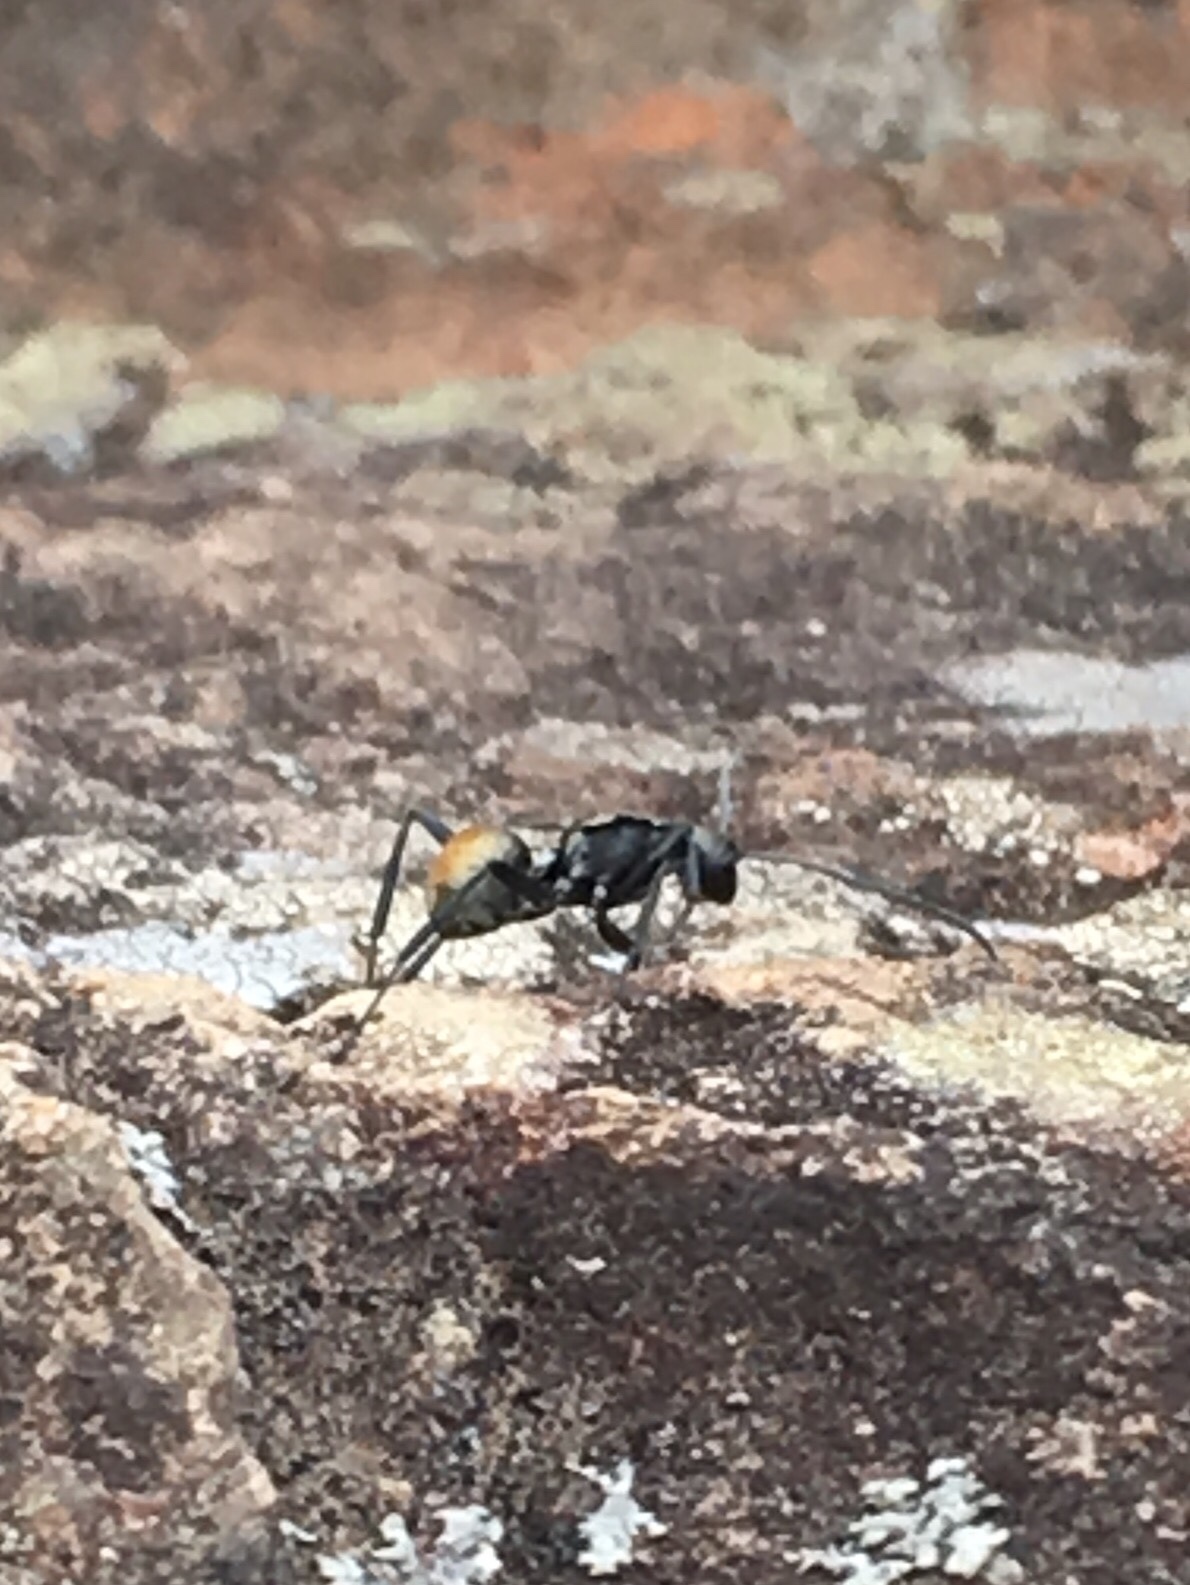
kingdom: Animalia
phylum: Arthropoda
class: Insecta
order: Hymenoptera
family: Formicidae
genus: Polyrhachis
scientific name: Polyrhachis ammon
